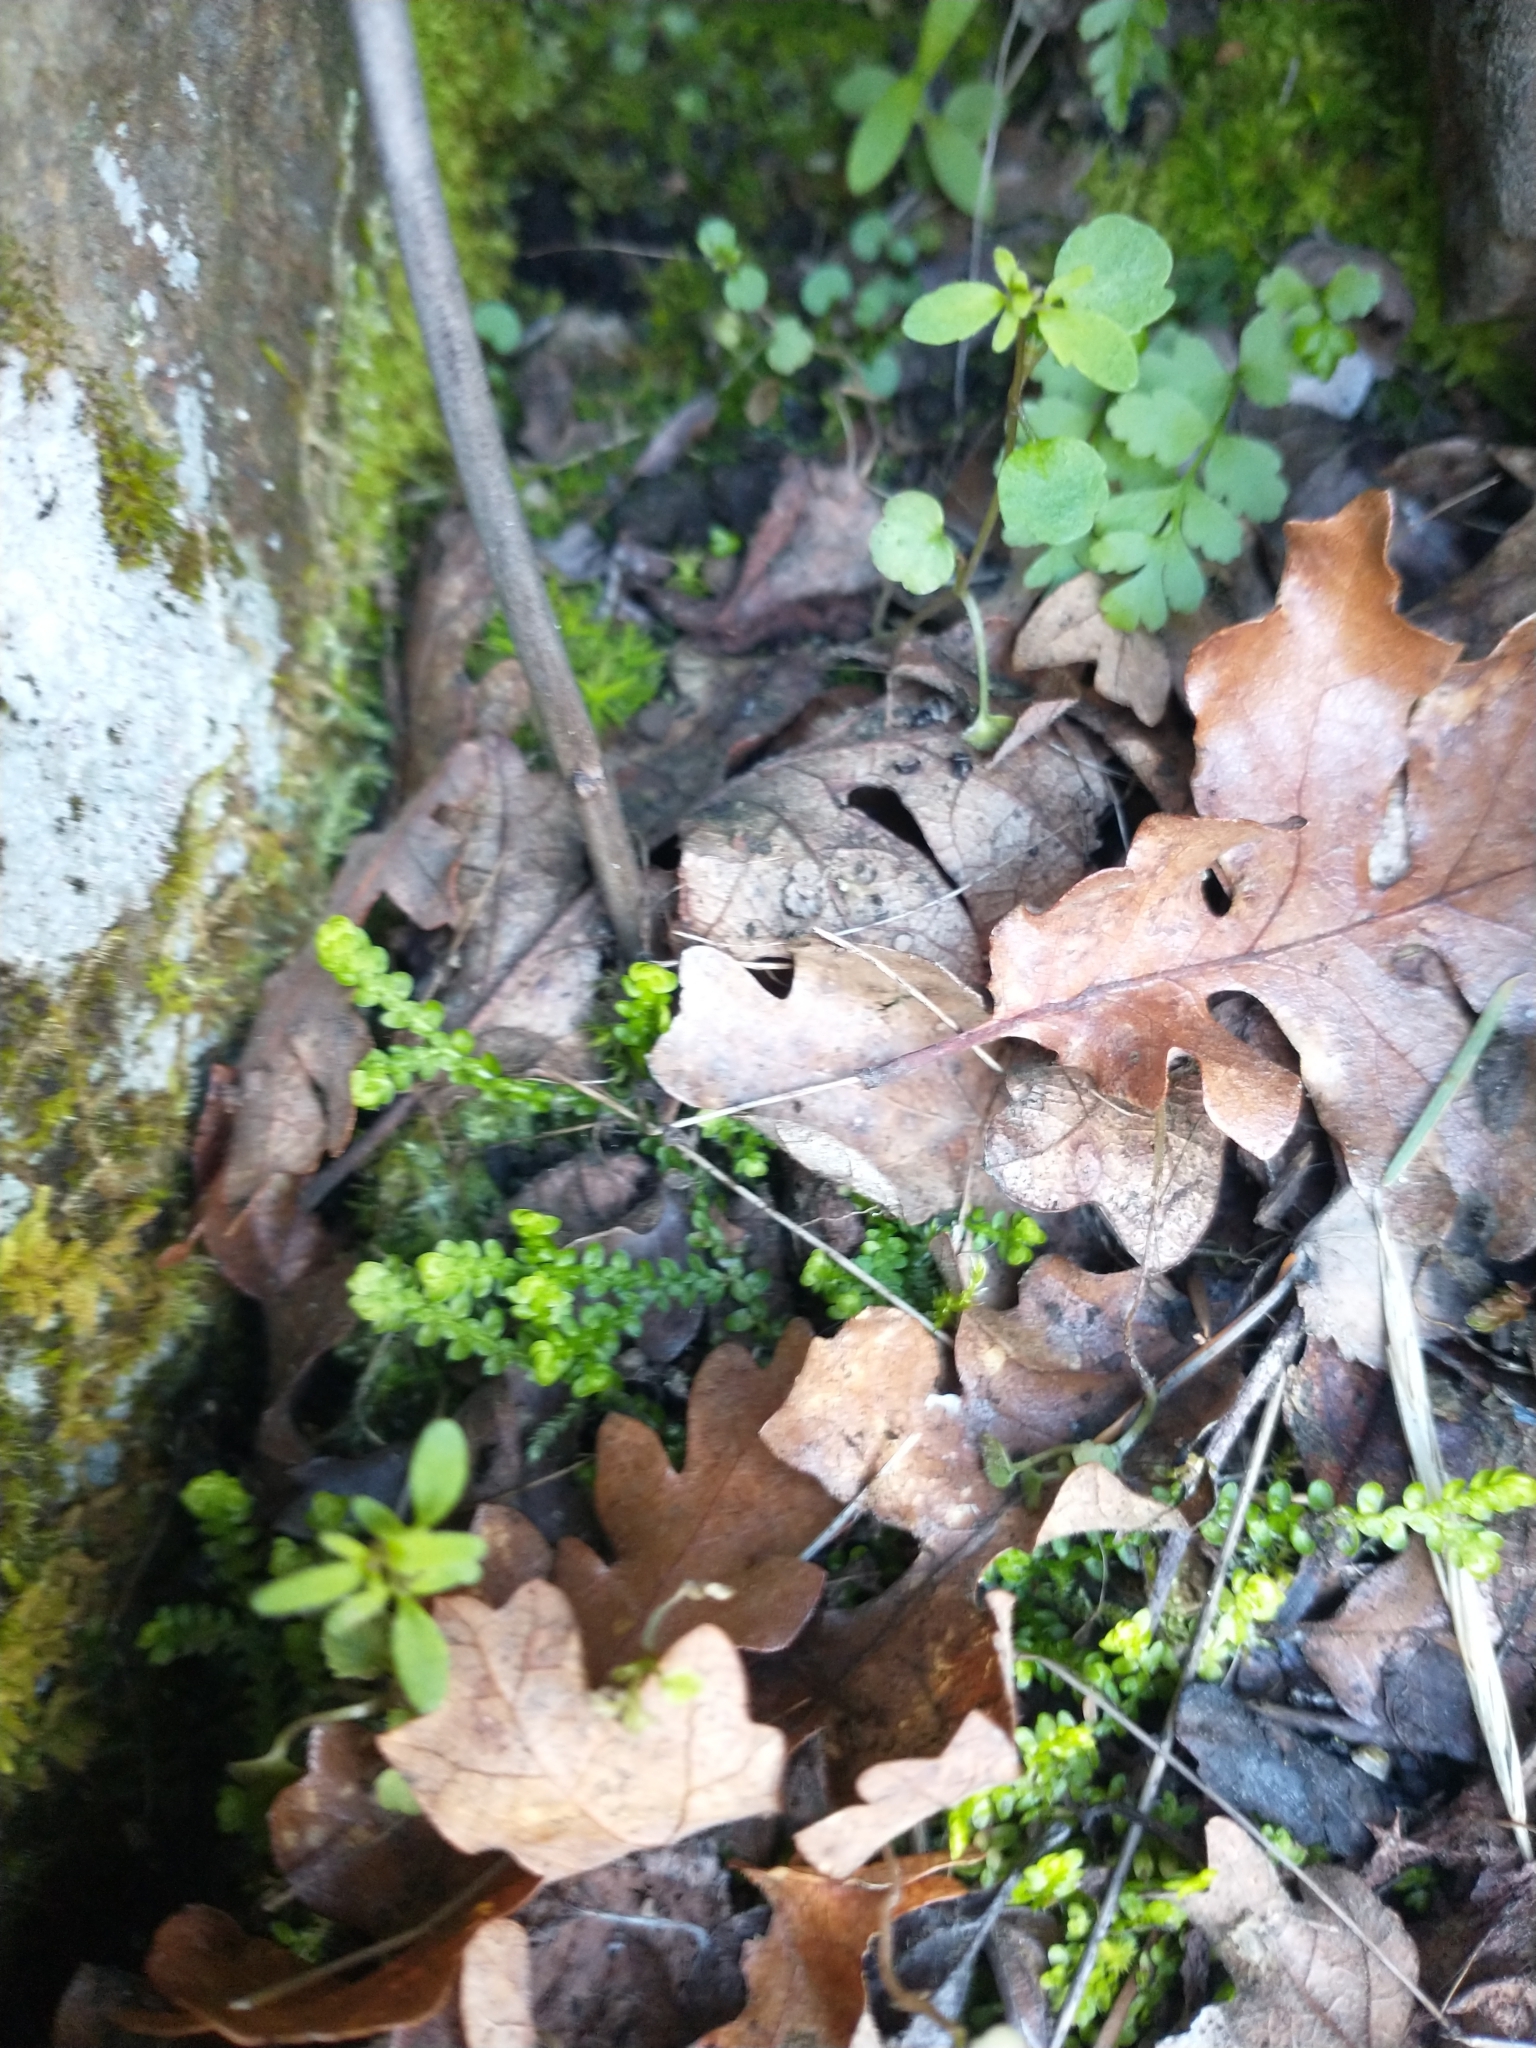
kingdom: Plantae
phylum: Tracheophyta
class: Lycopodiopsida
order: Selaginellales
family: Selaginellaceae
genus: Selaginella
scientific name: Selaginella douglasii
